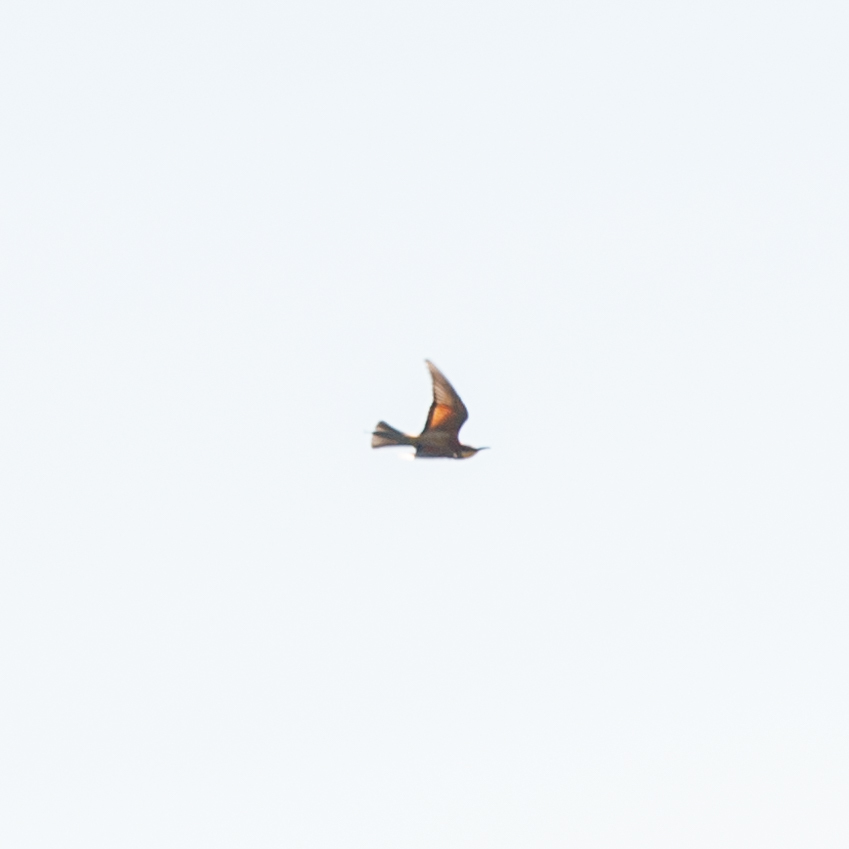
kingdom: Animalia
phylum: Chordata
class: Aves
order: Coraciiformes
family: Meropidae
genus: Merops
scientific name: Merops apiaster
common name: European bee-eater
